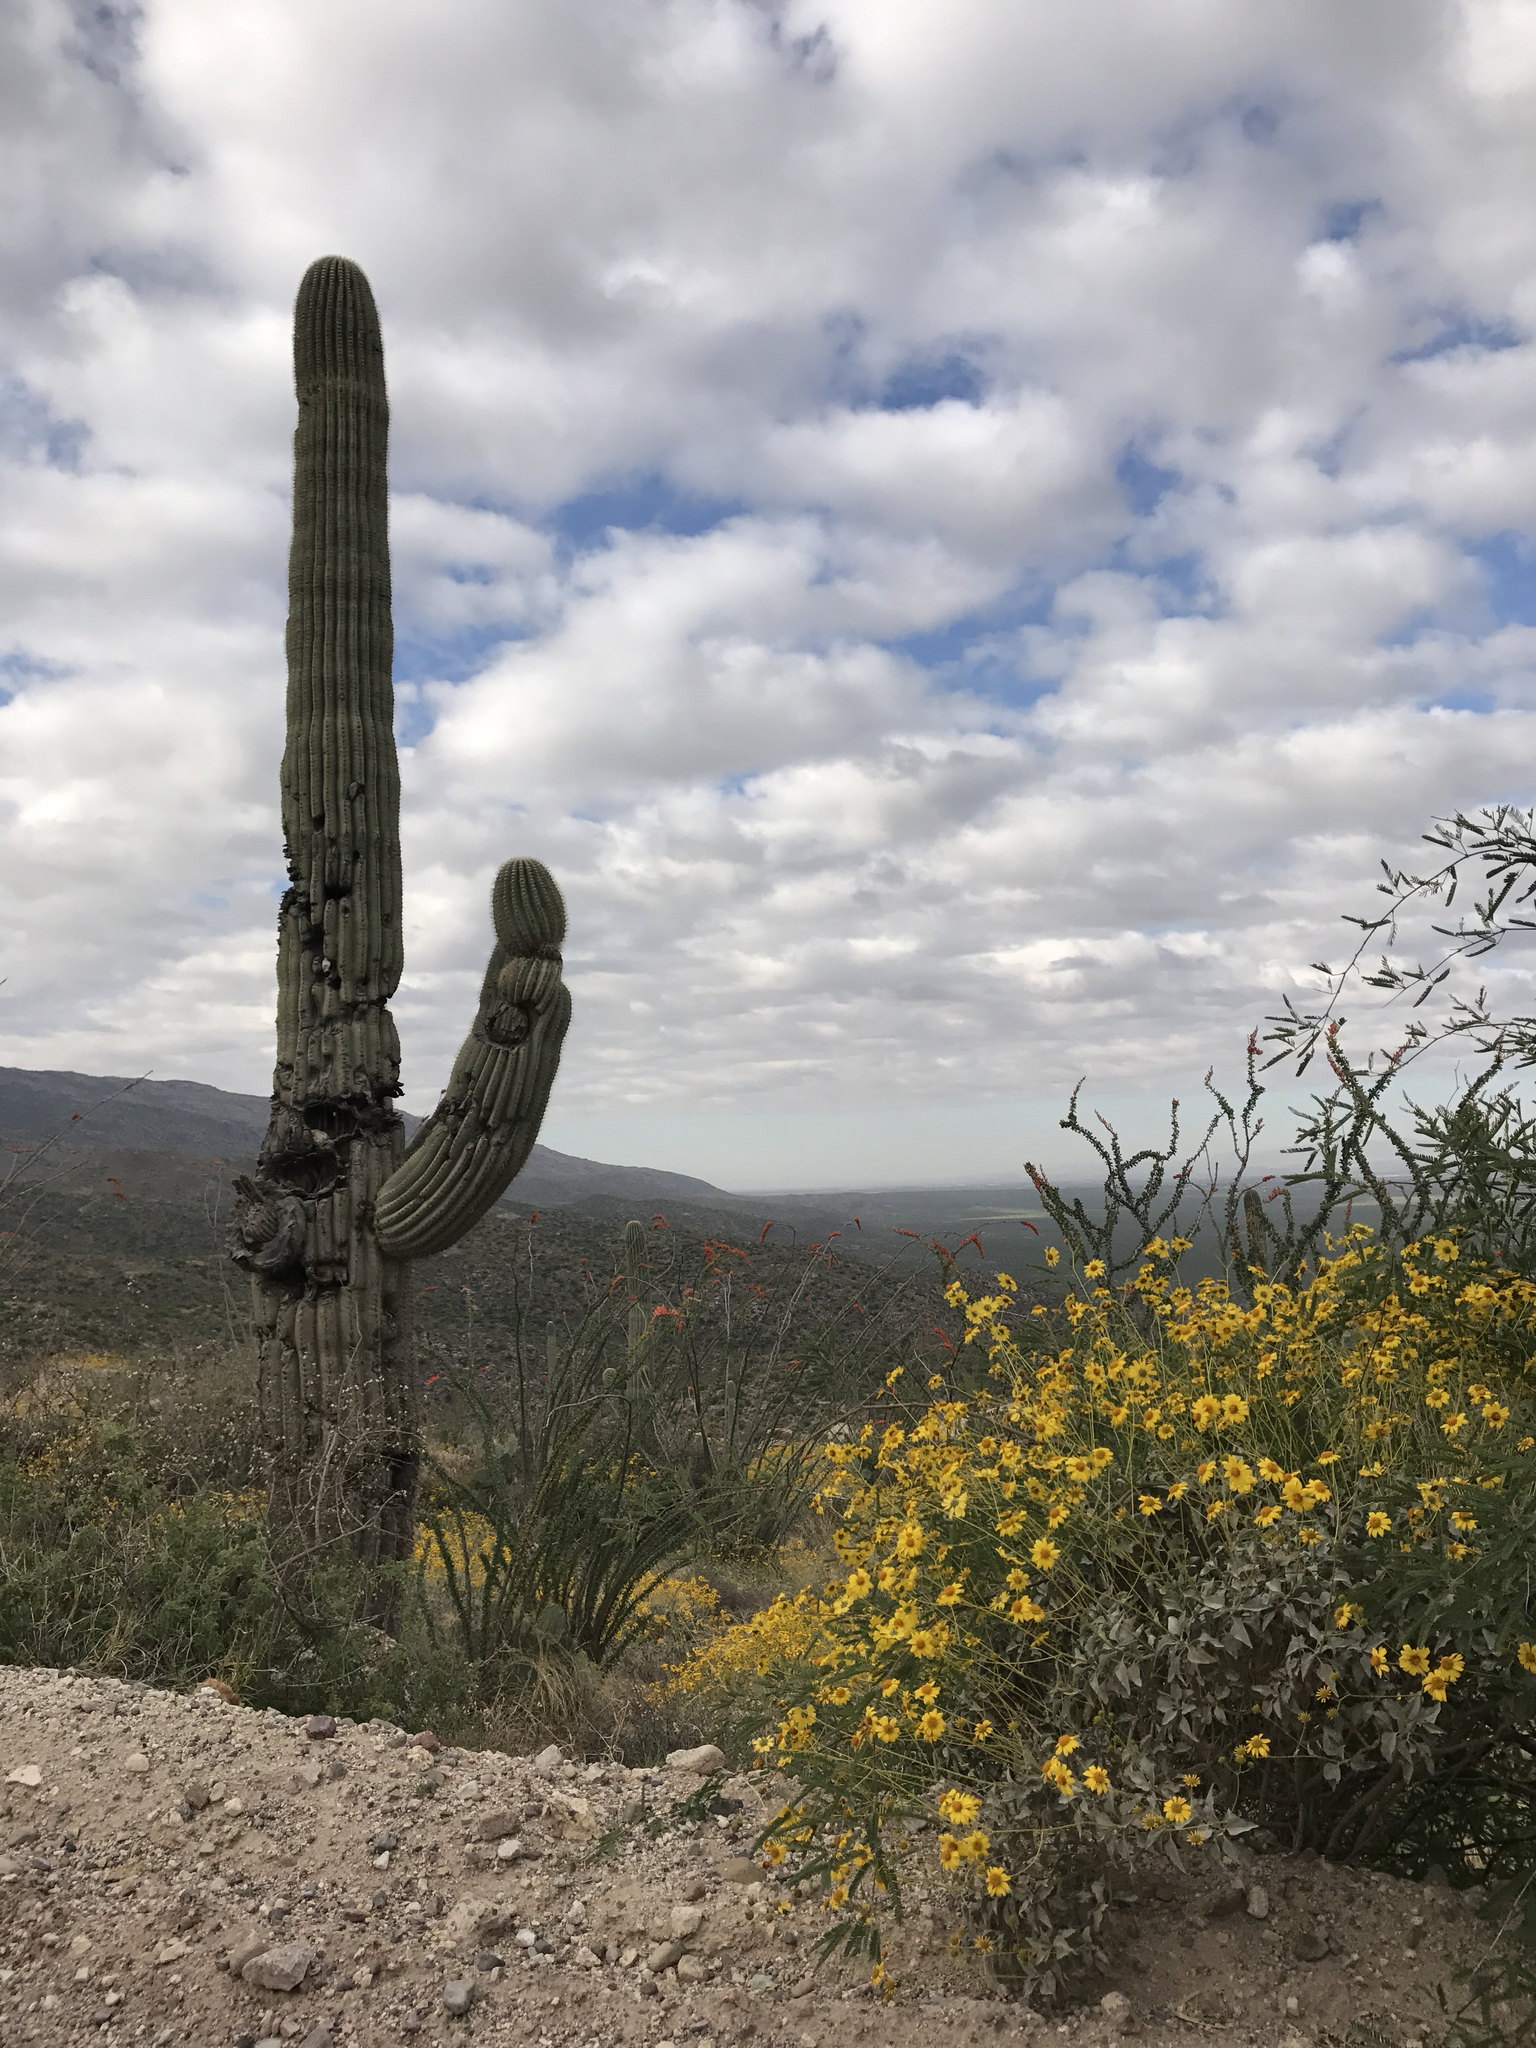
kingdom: Plantae
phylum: Tracheophyta
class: Magnoliopsida
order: Caryophyllales
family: Cactaceae
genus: Carnegiea
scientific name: Carnegiea gigantea
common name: Saguaro
